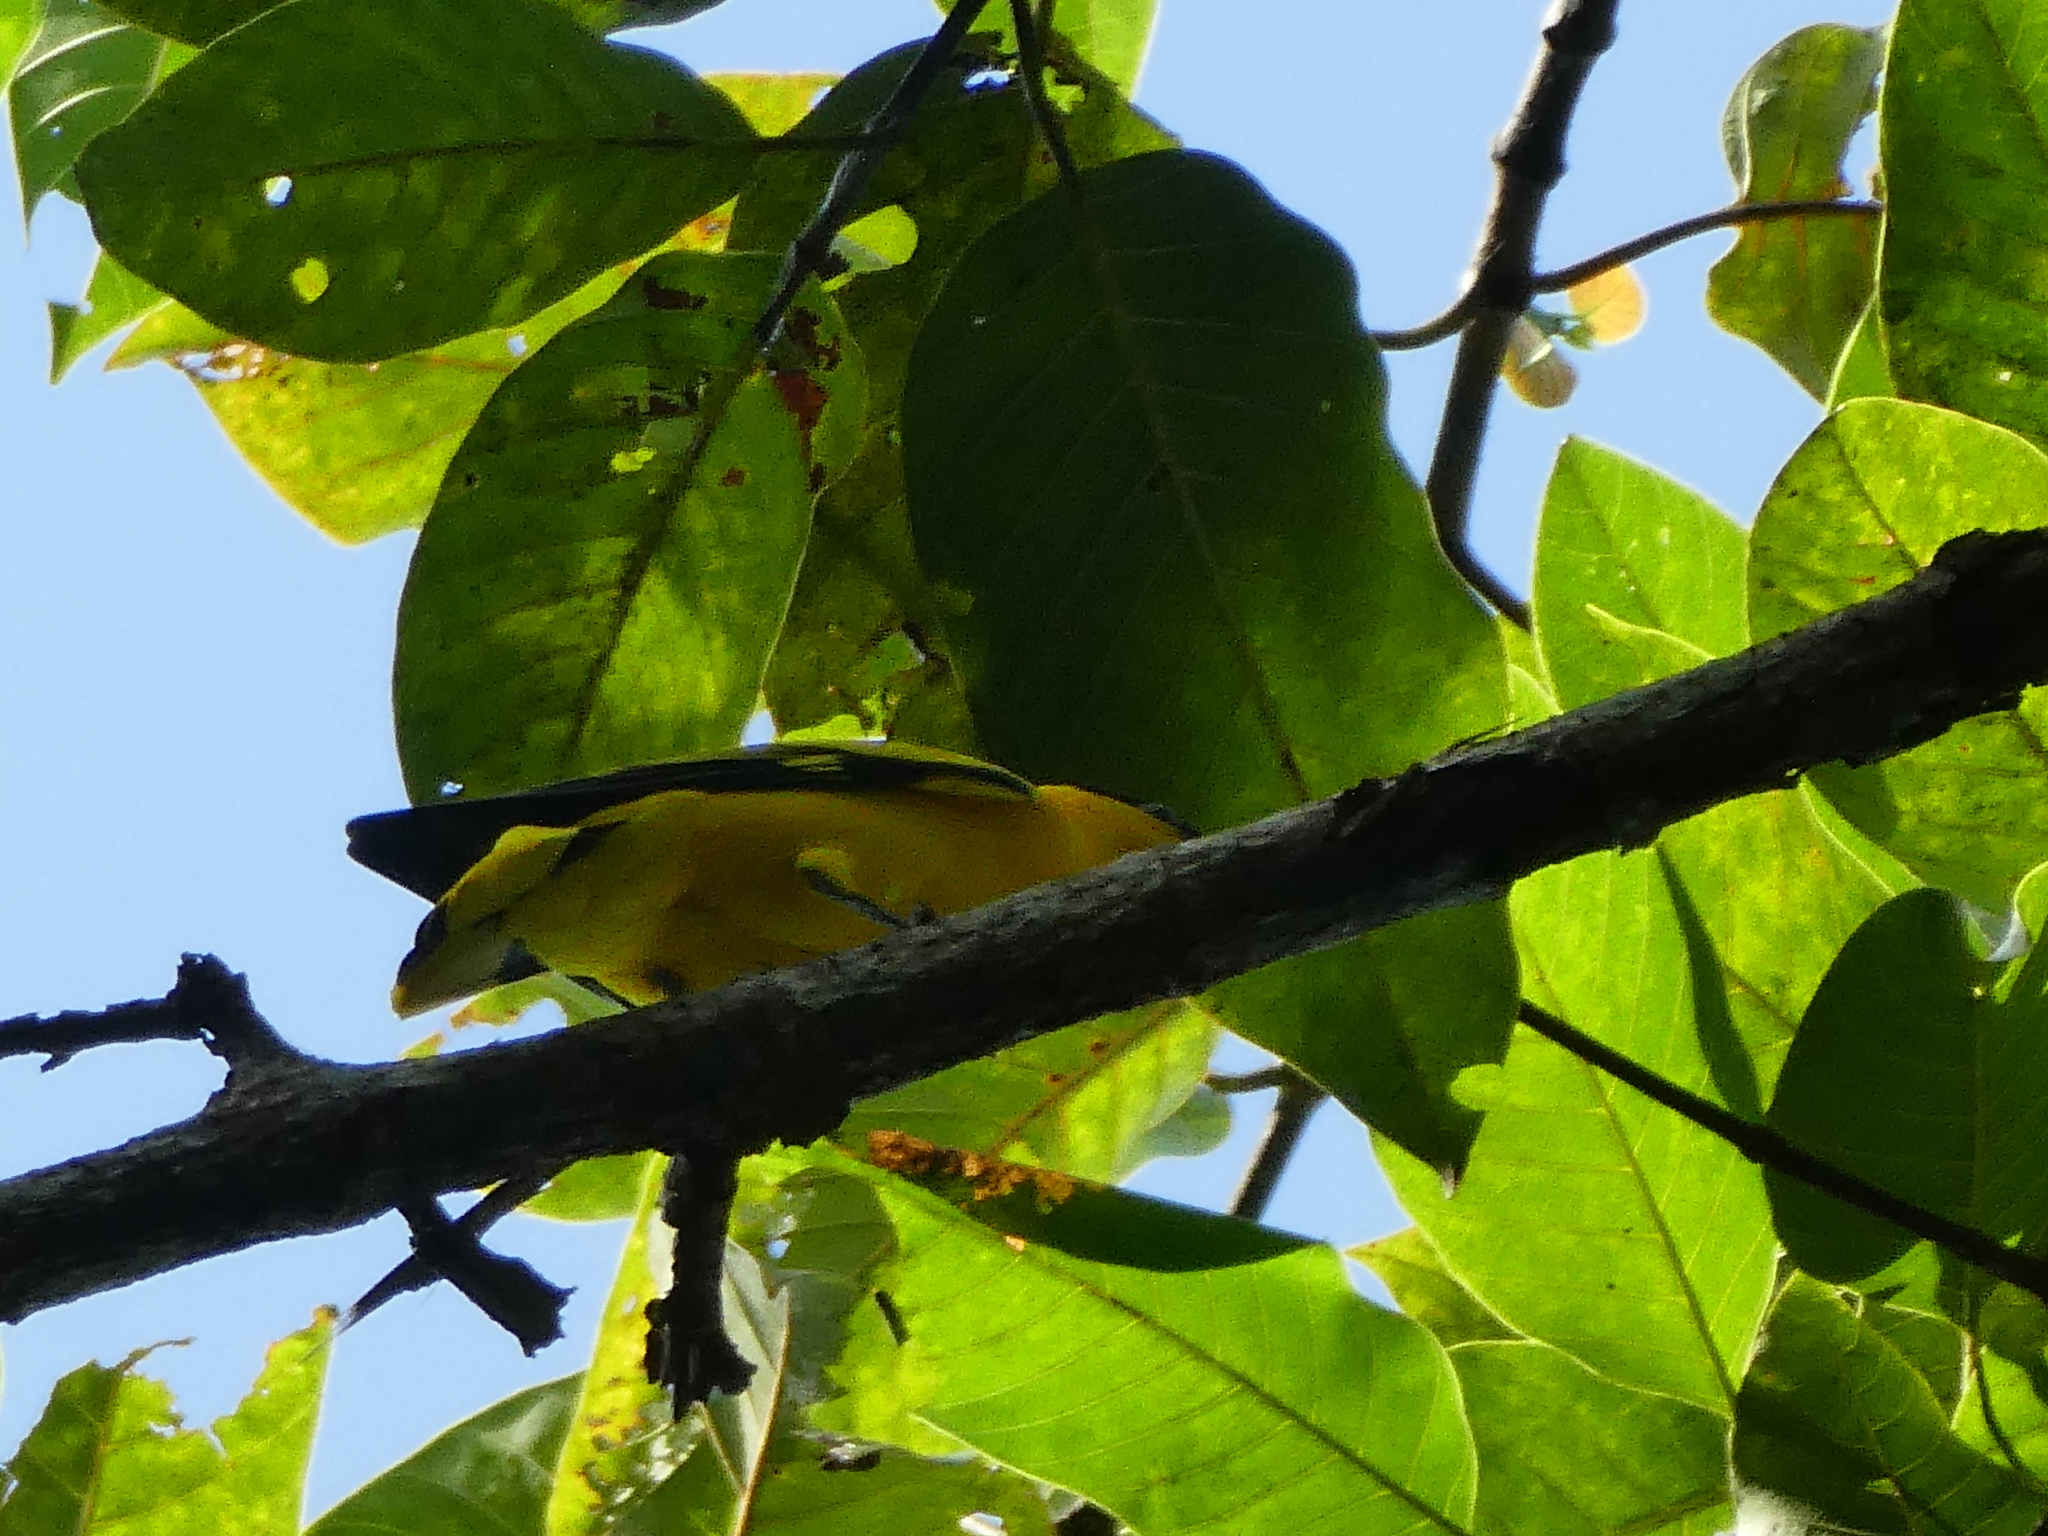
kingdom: Animalia
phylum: Chordata
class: Aves
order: Passeriformes
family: Oriolidae
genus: Oriolus
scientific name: Oriolus chinensis
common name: Black-naped oriole
